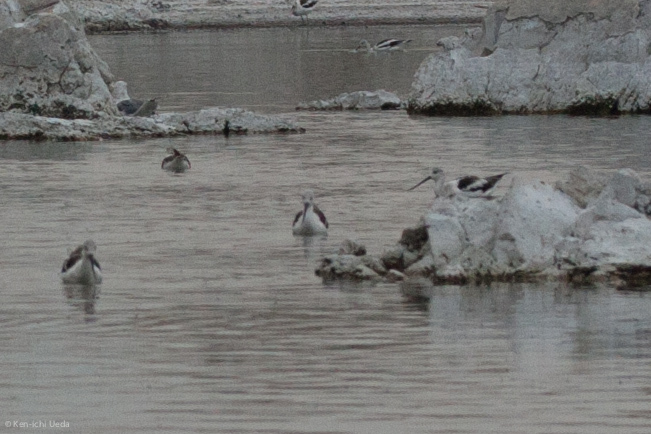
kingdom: Animalia
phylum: Chordata
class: Aves
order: Charadriiformes
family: Recurvirostridae
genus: Recurvirostra
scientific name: Recurvirostra americana
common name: American avocet
